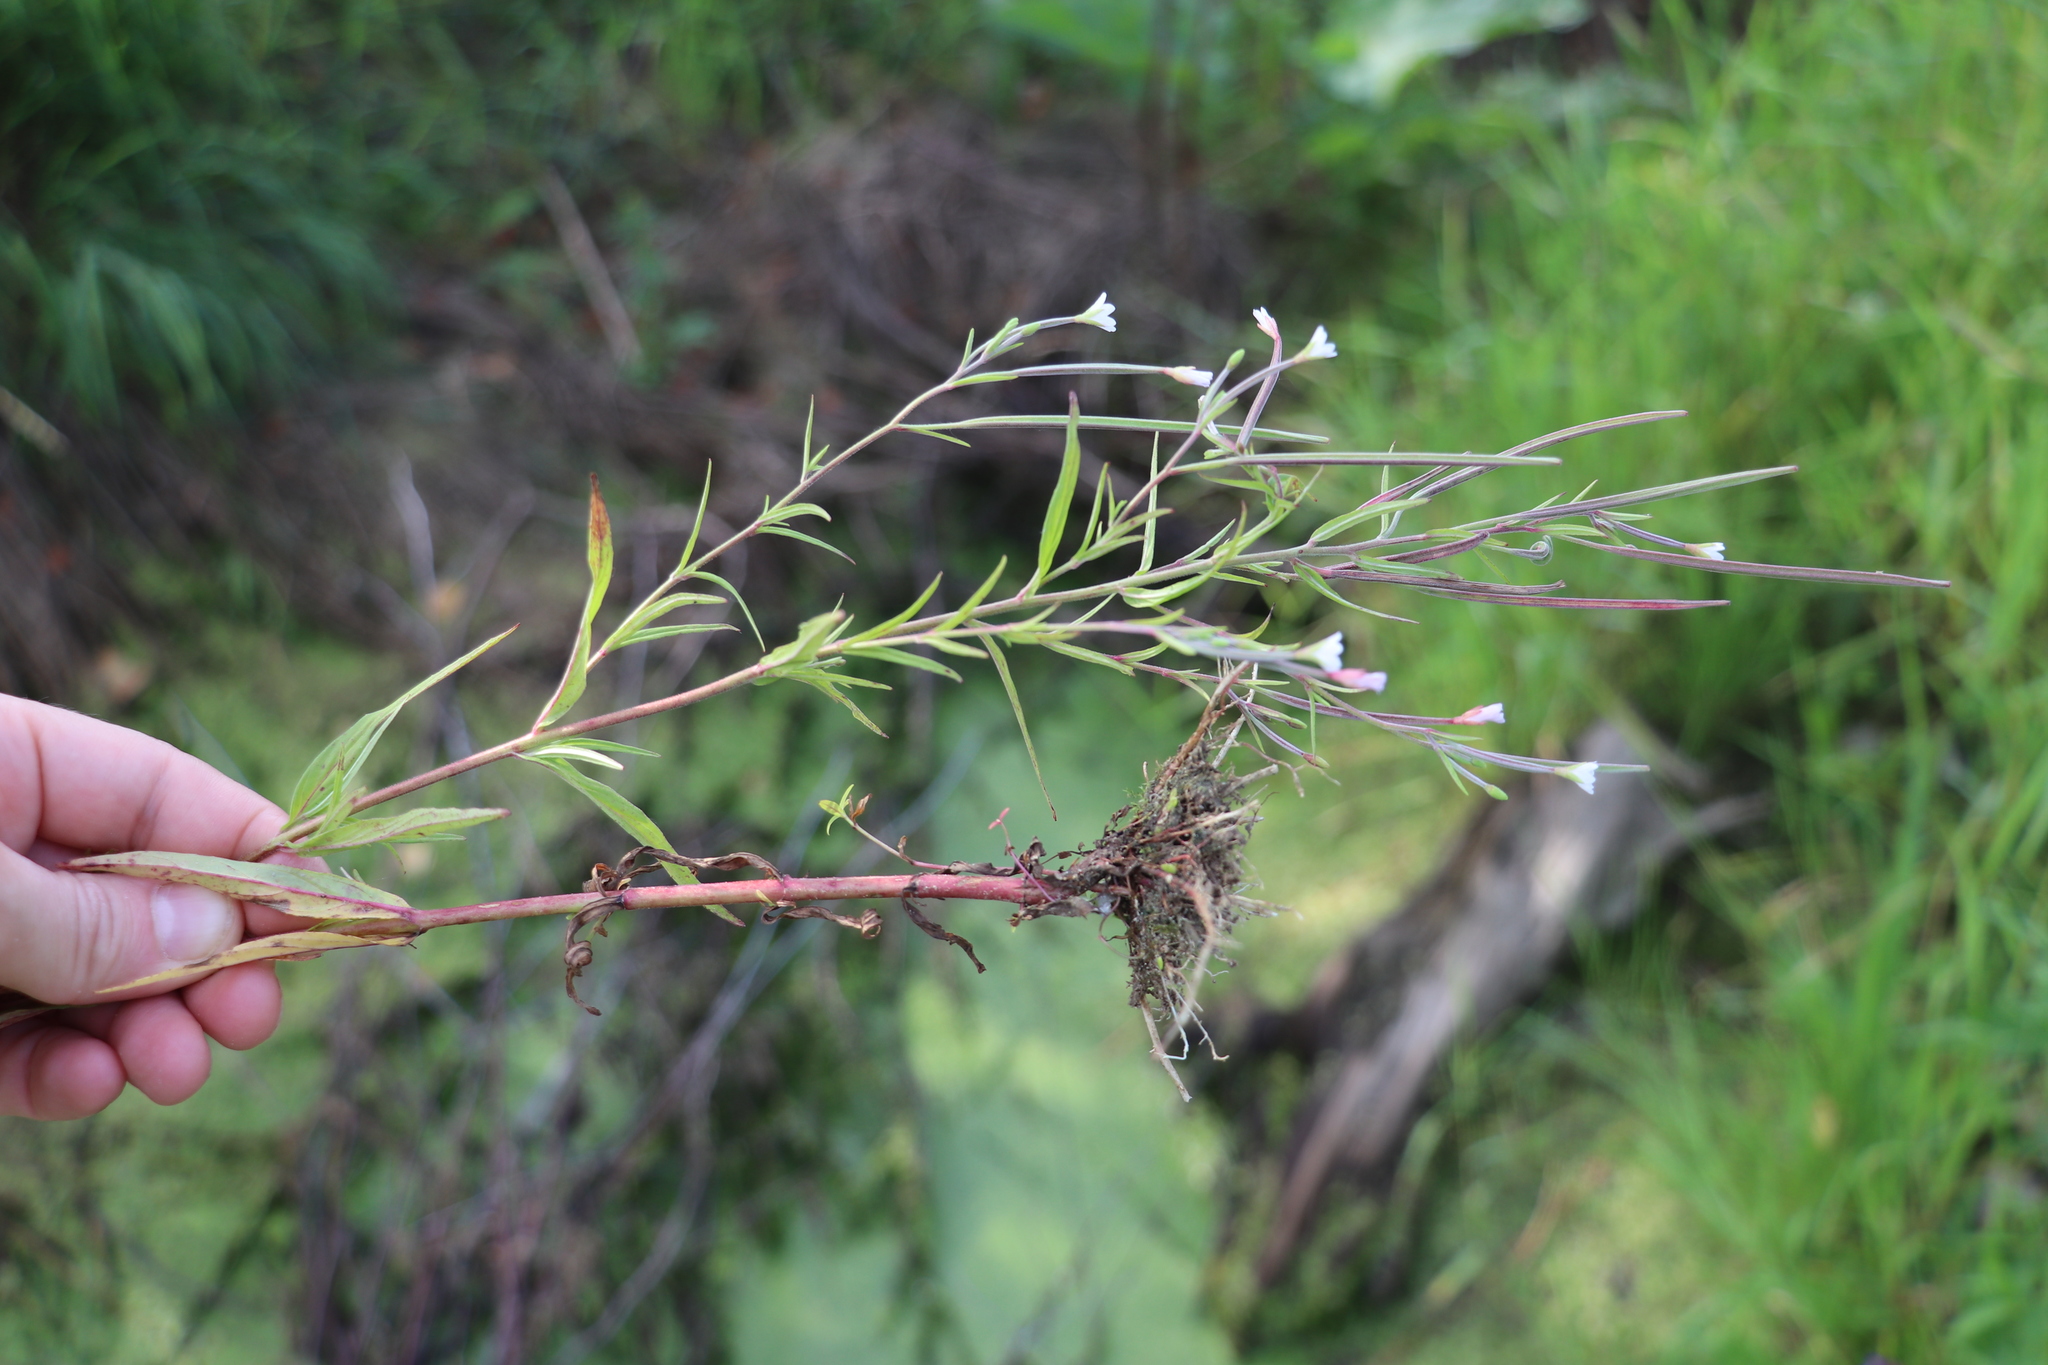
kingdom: Plantae
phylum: Tracheophyta
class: Magnoliopsida
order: Myrtales
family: Onagraceae
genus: Epilobium
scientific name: Epilobium palustre
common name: Marsh willowherb
